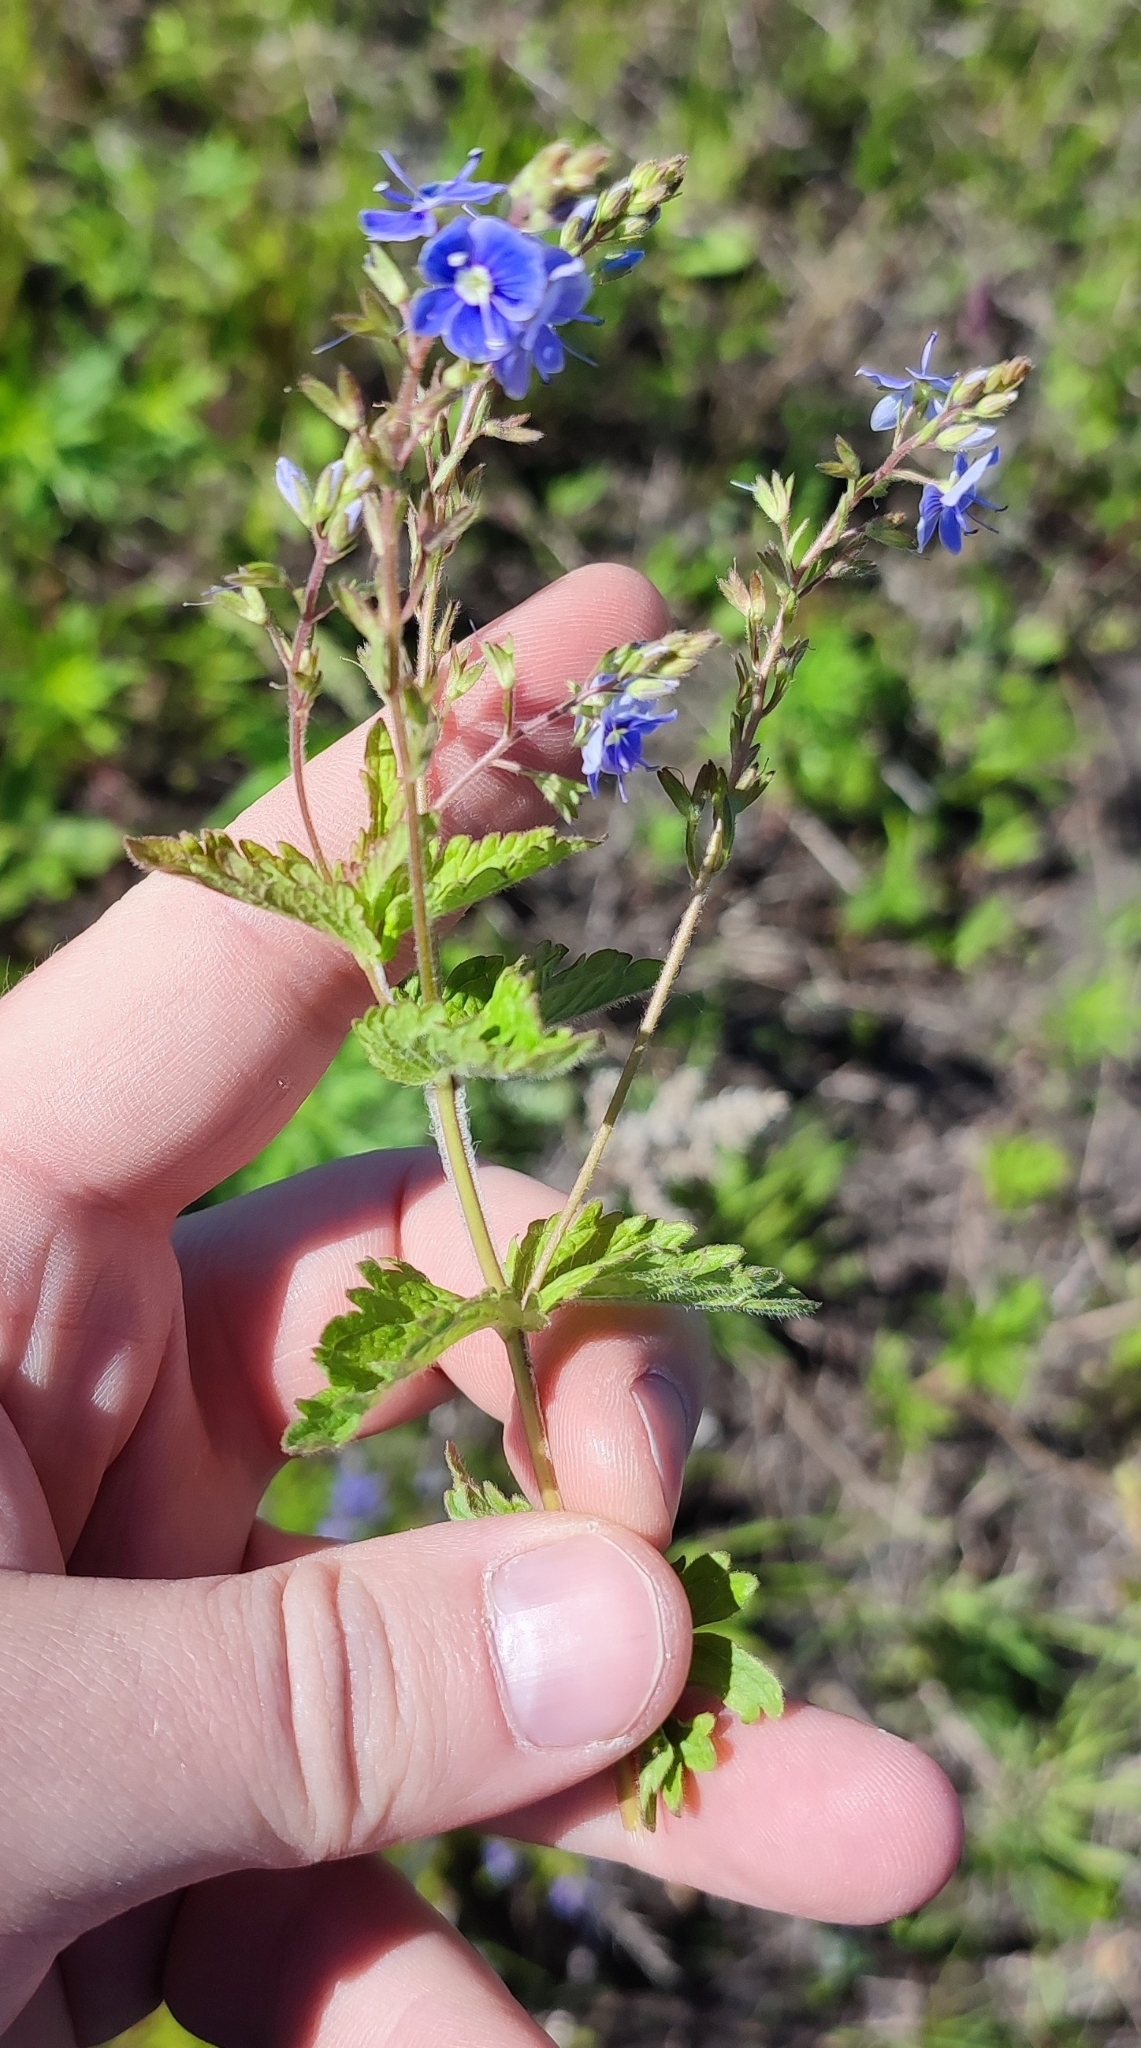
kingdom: Plantae
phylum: Tracheophyta
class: Magnoliopsida
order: Lamiales
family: Plantaginaceae
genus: Veronica
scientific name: Veronica chamaedrys
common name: Germander speedwell
